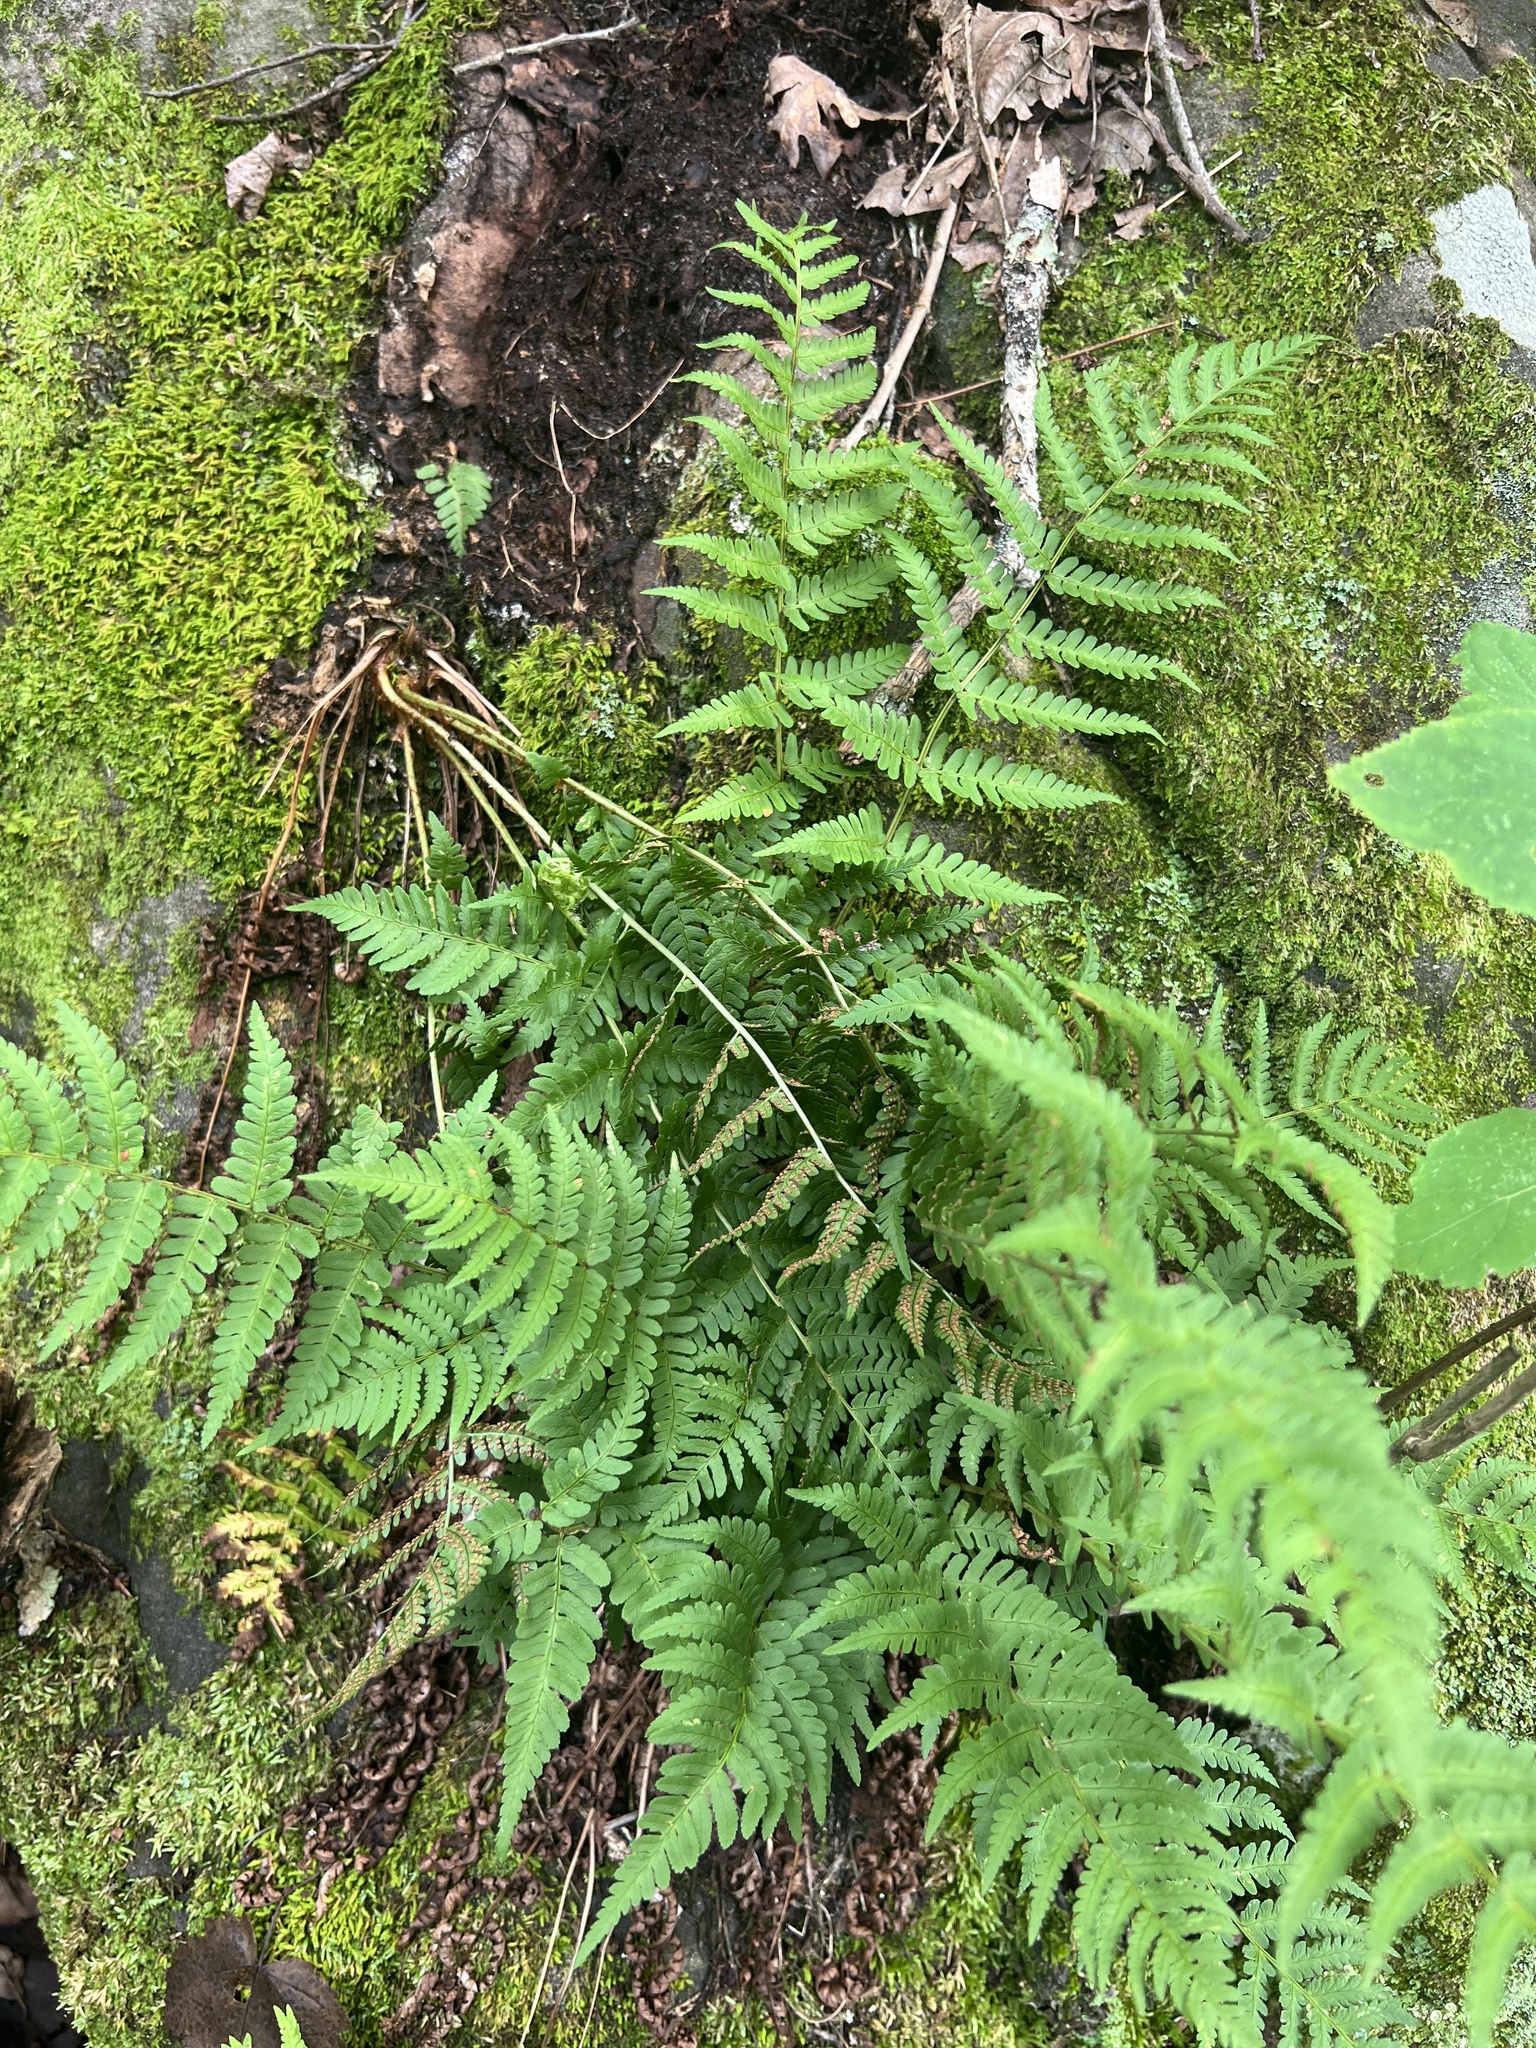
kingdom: Plantae
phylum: Tracheophyta
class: Polypodiopsida
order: Polypodiales
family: Dryopteridaceae
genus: Dryopteris
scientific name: Dryopteris marginalis
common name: Marginal wood fern
